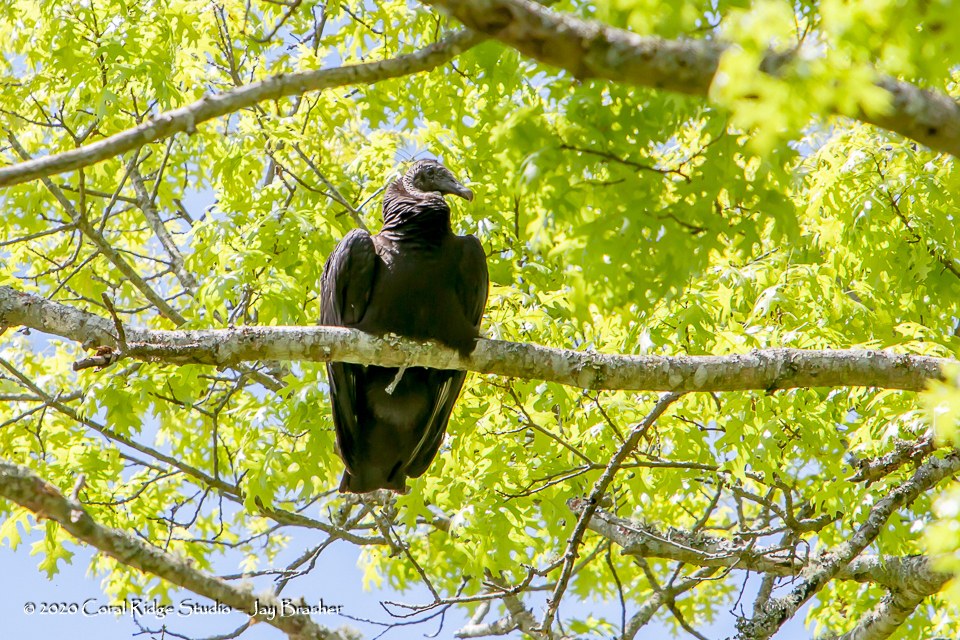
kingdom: Animalia
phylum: Chordata
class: Aves
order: Accipitriformes
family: Cathartidae
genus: Coragyps
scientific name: Coragyps atratus
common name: Black vulture
